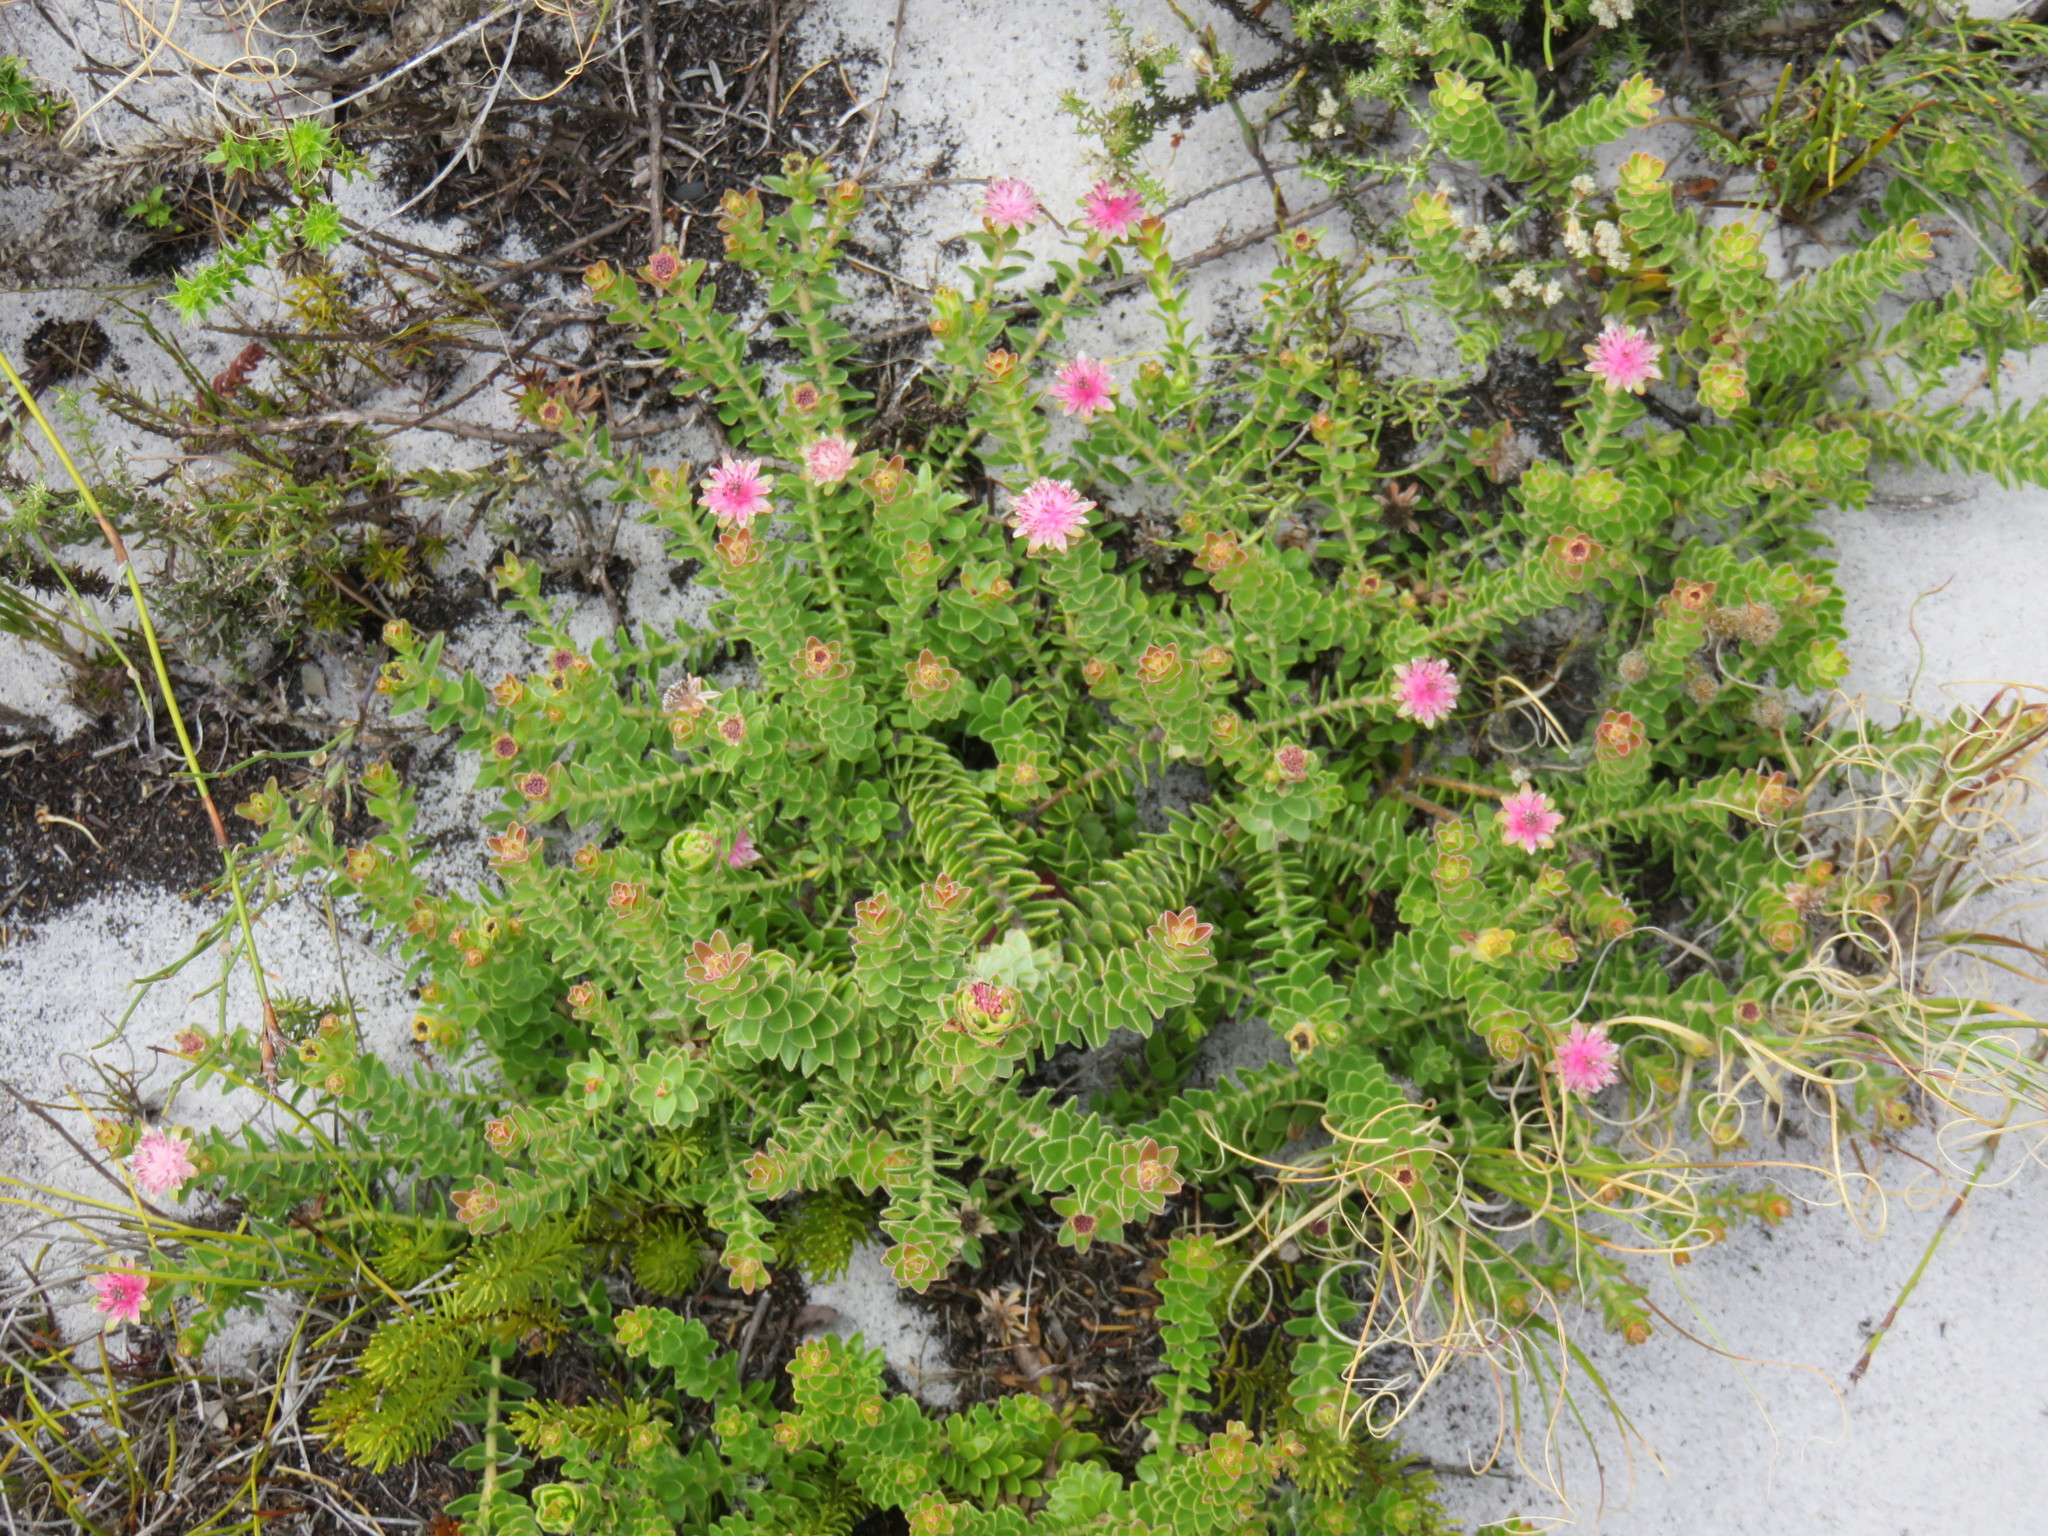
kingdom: Plantae
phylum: Tracheophyta
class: Magnoliopsida
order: Proteales
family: Proteaceae
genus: Diastella
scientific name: Diastella divaricata
